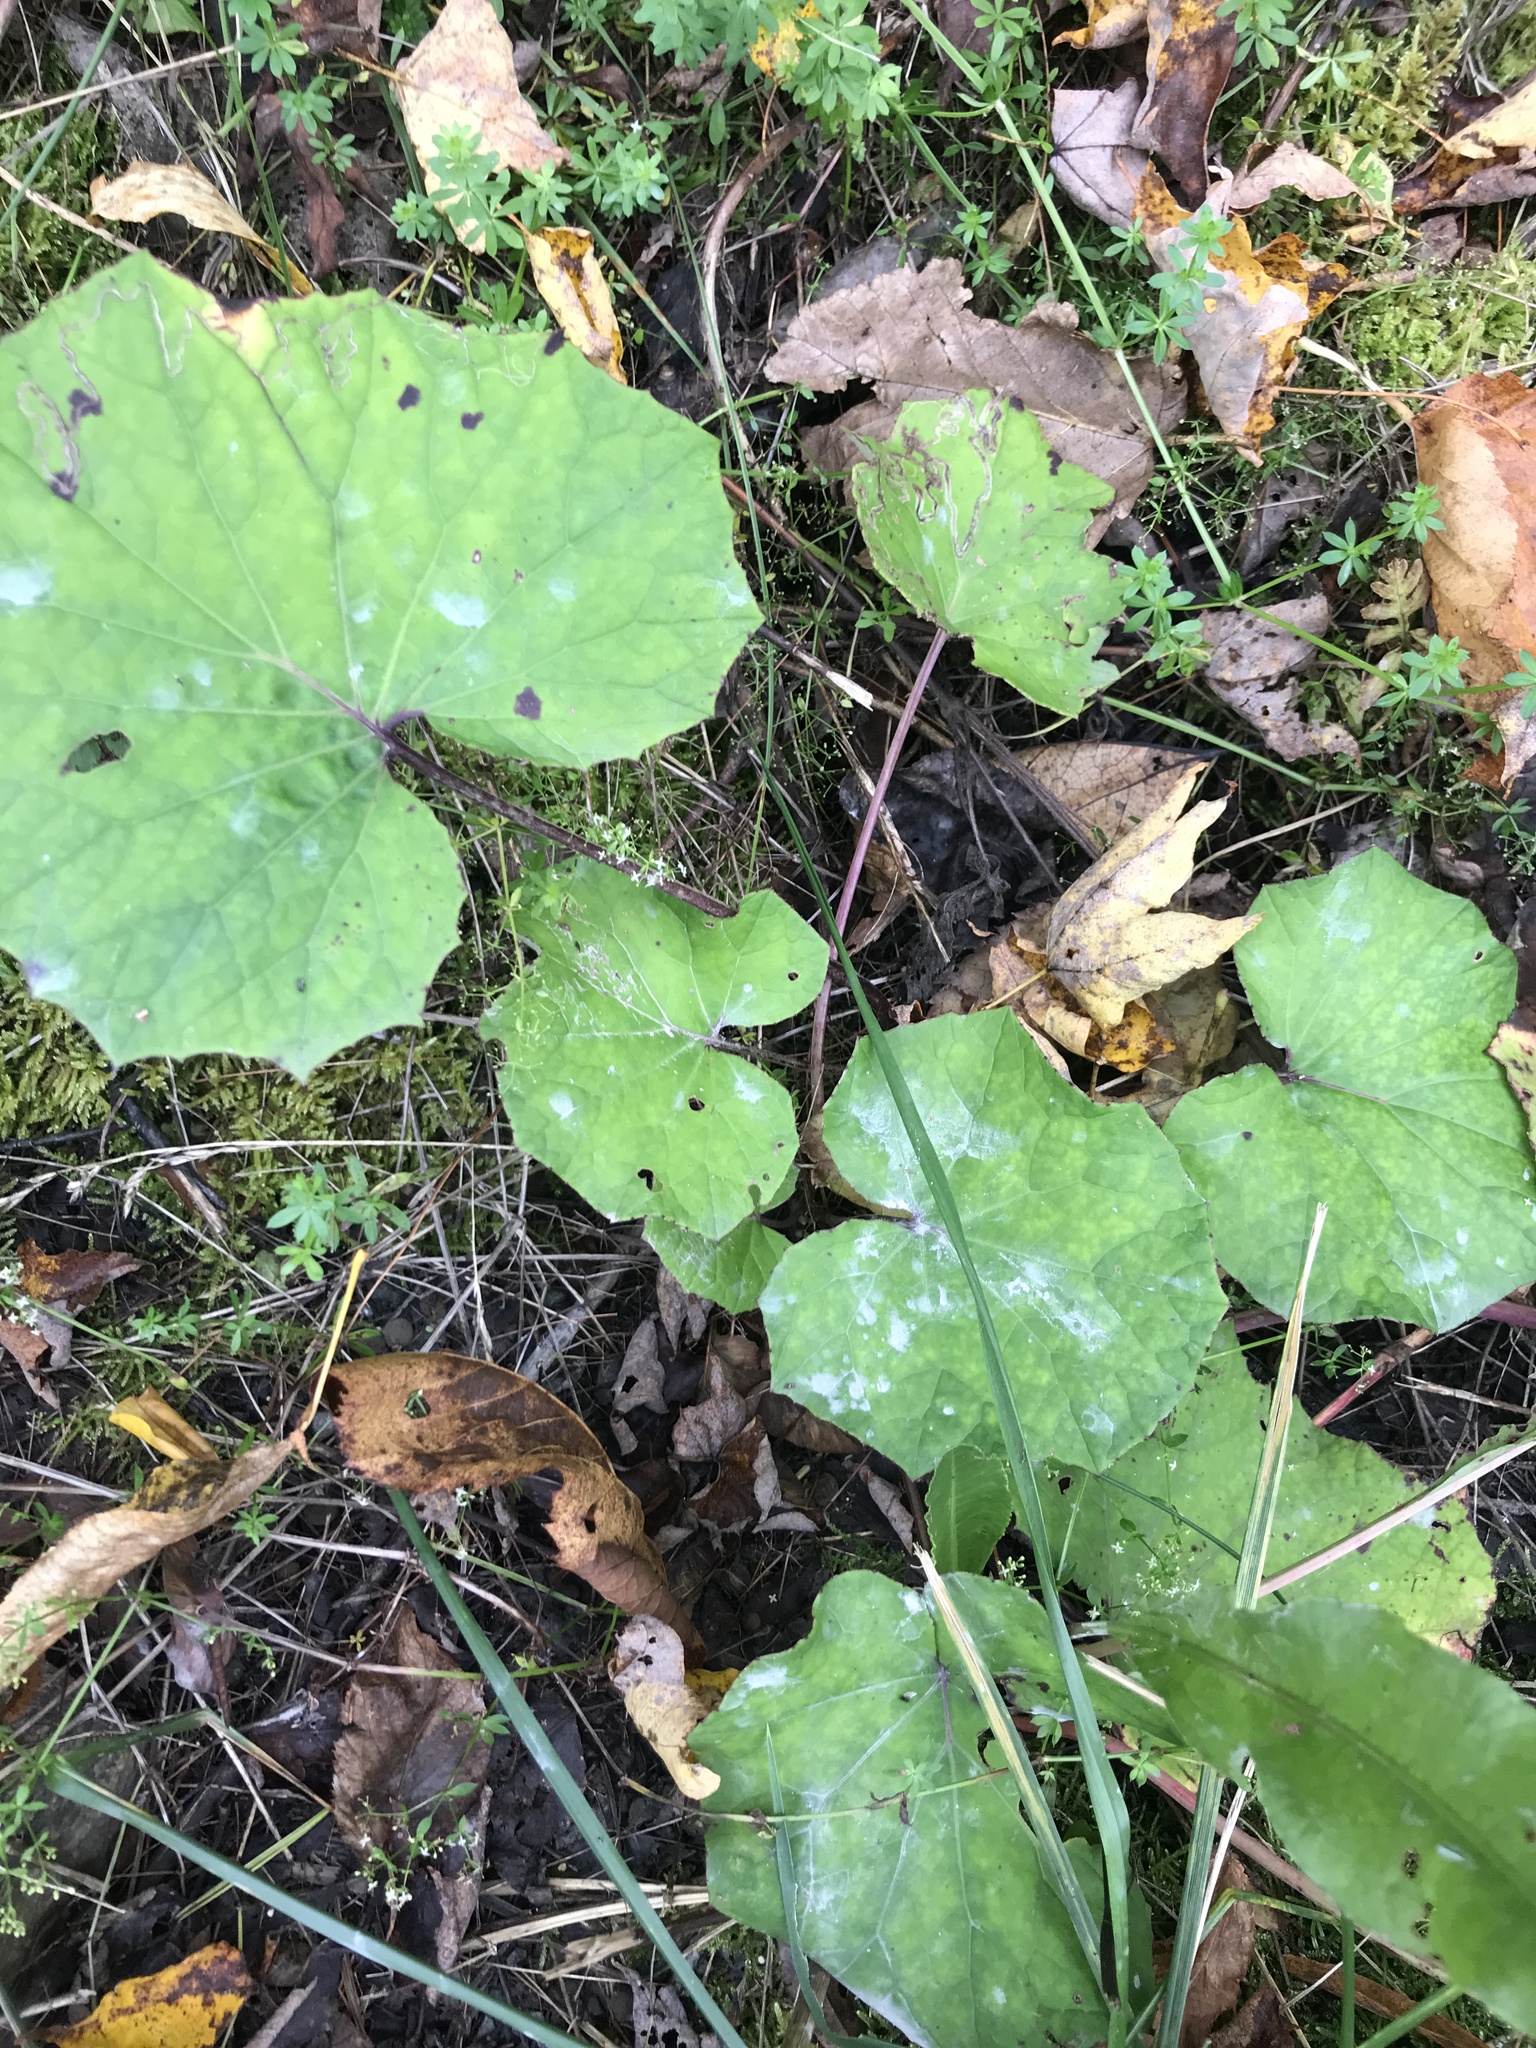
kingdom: Plantae
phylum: Tracheophyta
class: Magnoliopsida
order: Asterales
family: Asteraceae
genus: Tussilago
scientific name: Tussilago farfara
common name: Coltsfoot
